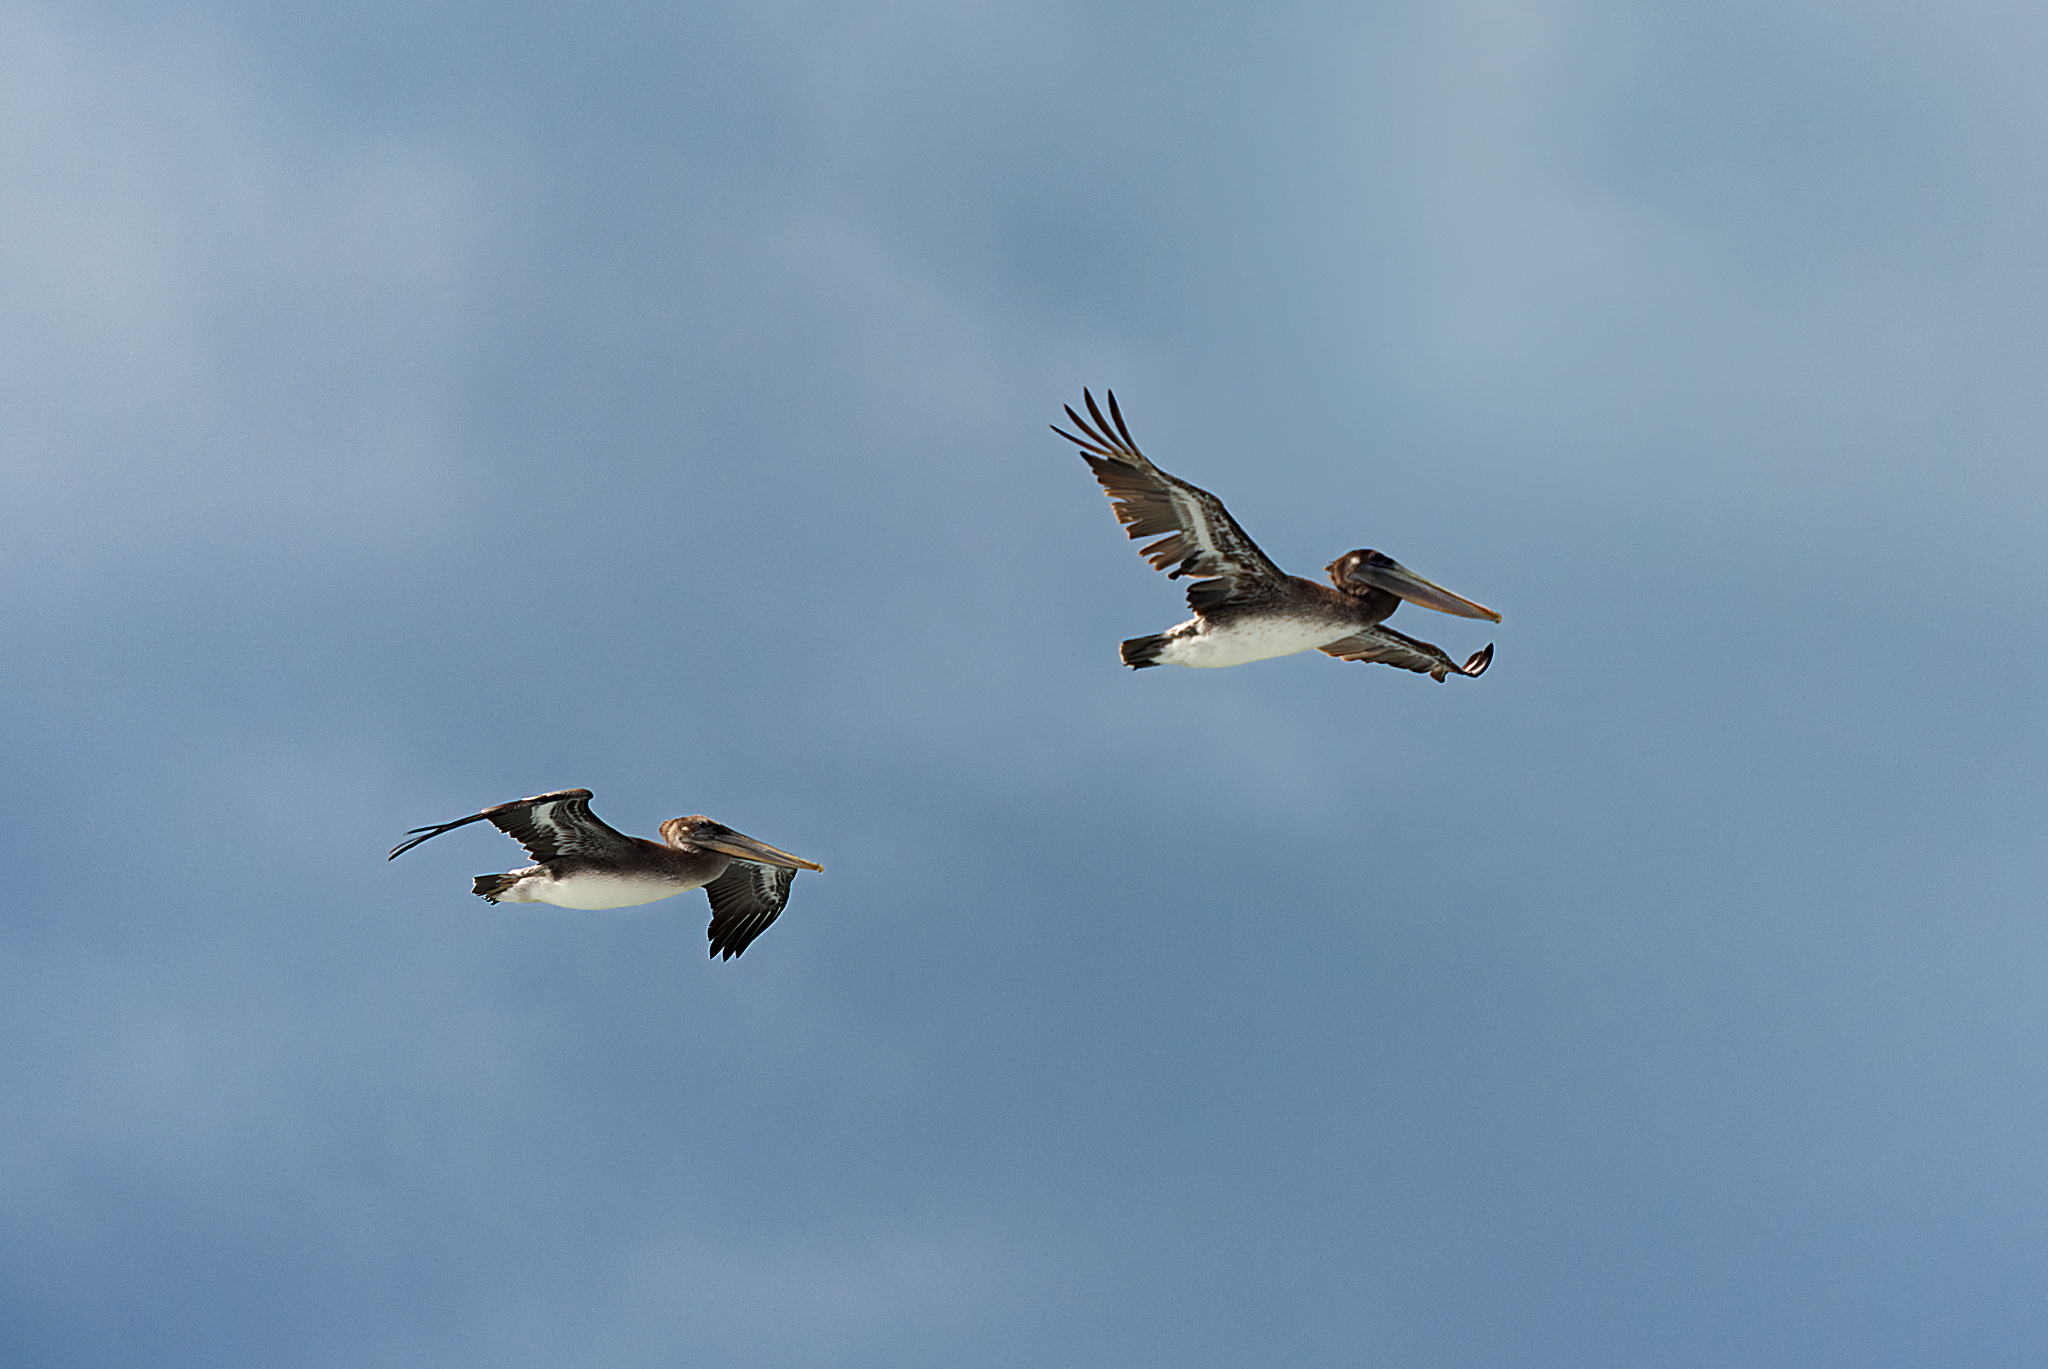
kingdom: Animalia
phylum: Chordata
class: Aves
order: Pelecaniformes
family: Pelecanidae
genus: Pelecanus
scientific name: Pelecanus occidentalis
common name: Brown pelican
